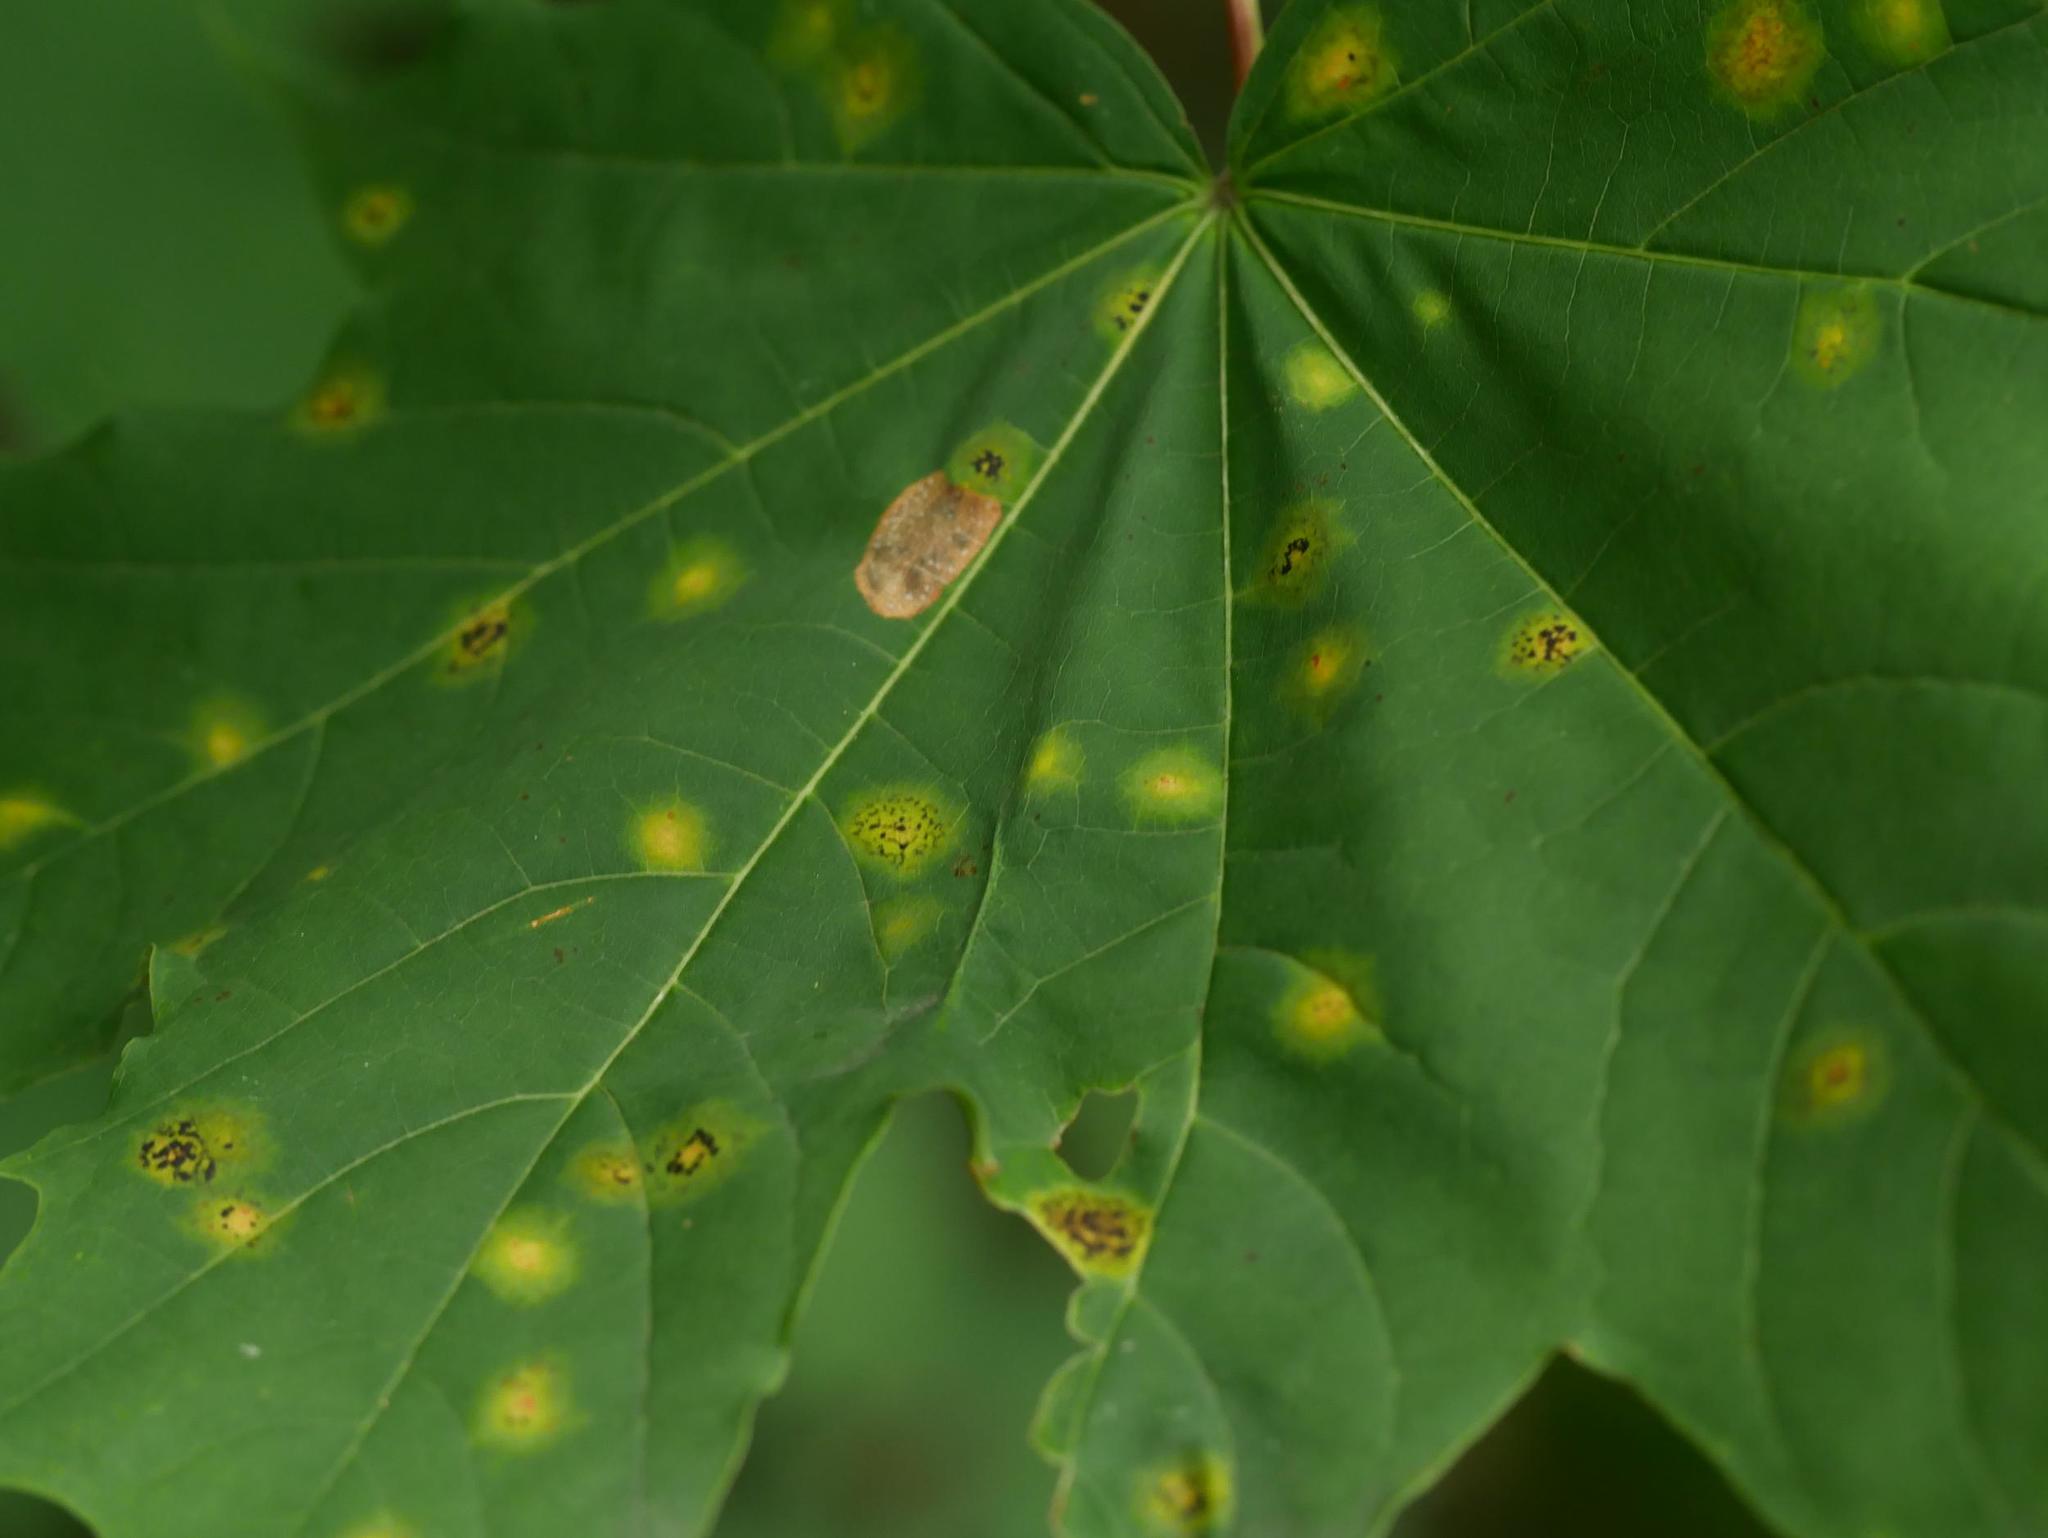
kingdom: Fungi
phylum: Ascomycota
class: Leotiomycetes
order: Rhytismatales
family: Rhytismataceae
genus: Rhytisma
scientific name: Rhytisma acerinum
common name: European tar spot
